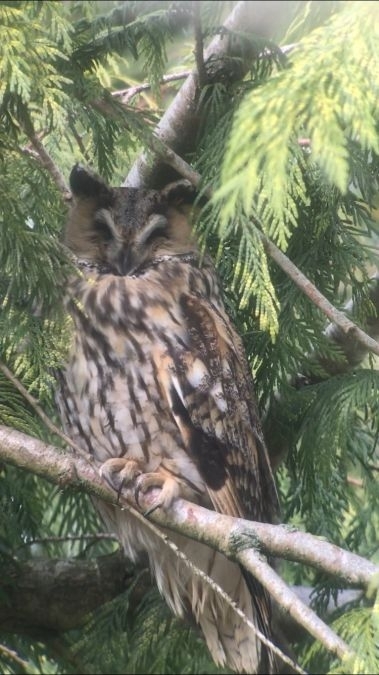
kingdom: Animalia
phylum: Chordata
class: Aves
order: Strigiformes
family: Strigidae
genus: Asio
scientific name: Asio otus
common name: Long-eared owl
